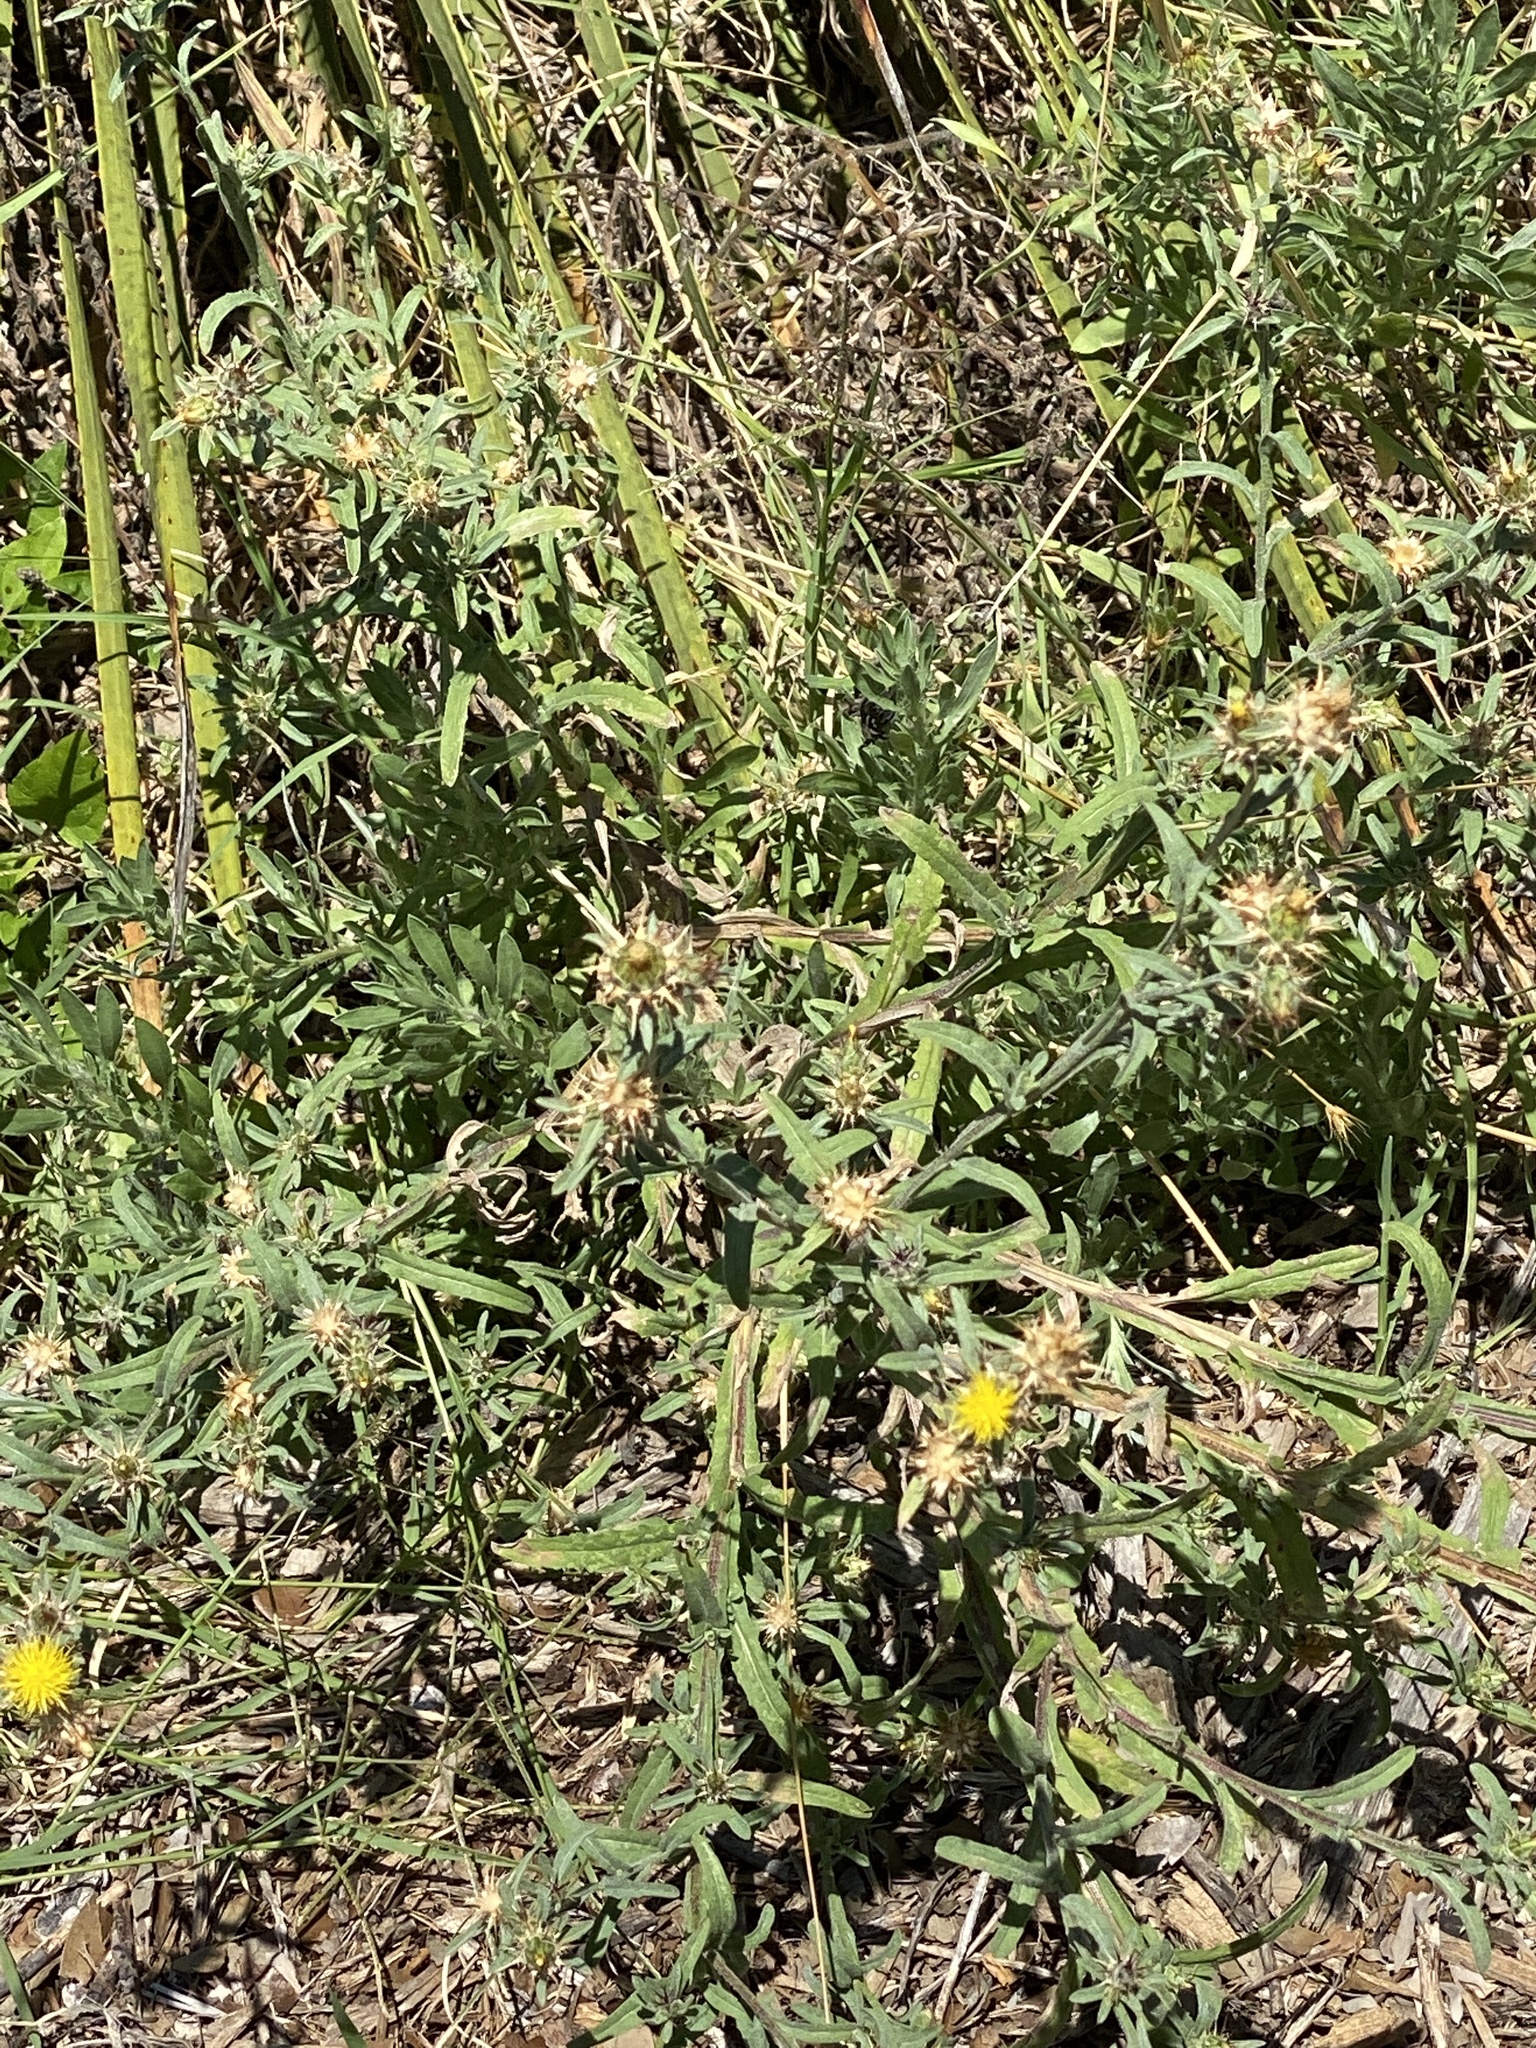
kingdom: Plantae
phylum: Tracheophyta
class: Magnoliopsida
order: Asterales
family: Asteraceae
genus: Centaurea
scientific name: Centaurea melitensis
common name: Maltese star-thistle
